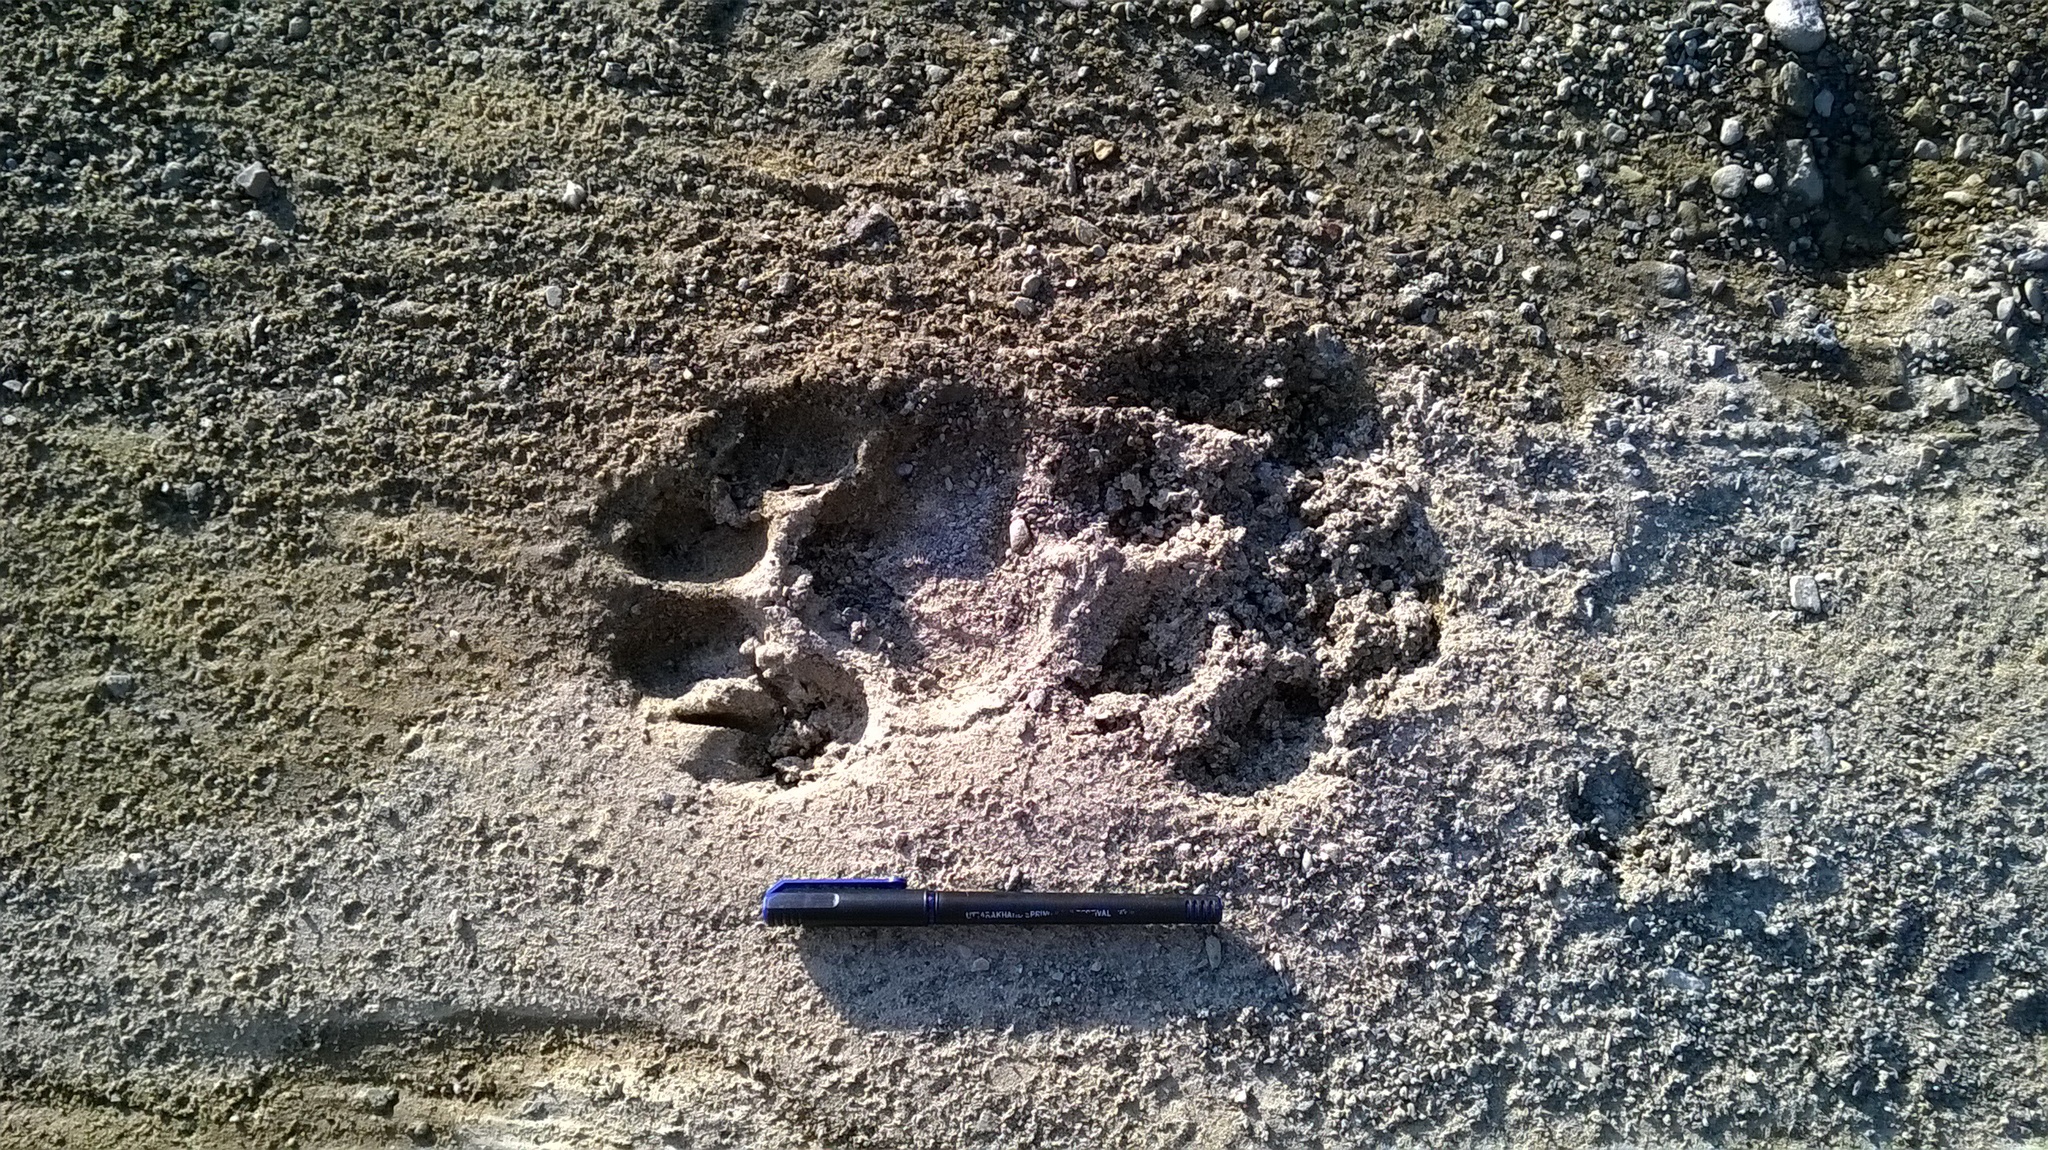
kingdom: Animalia
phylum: Chordata
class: Mammalia
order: Carnivora
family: Felidae
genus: Panthera
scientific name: Panthera tigris
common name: Tiger
